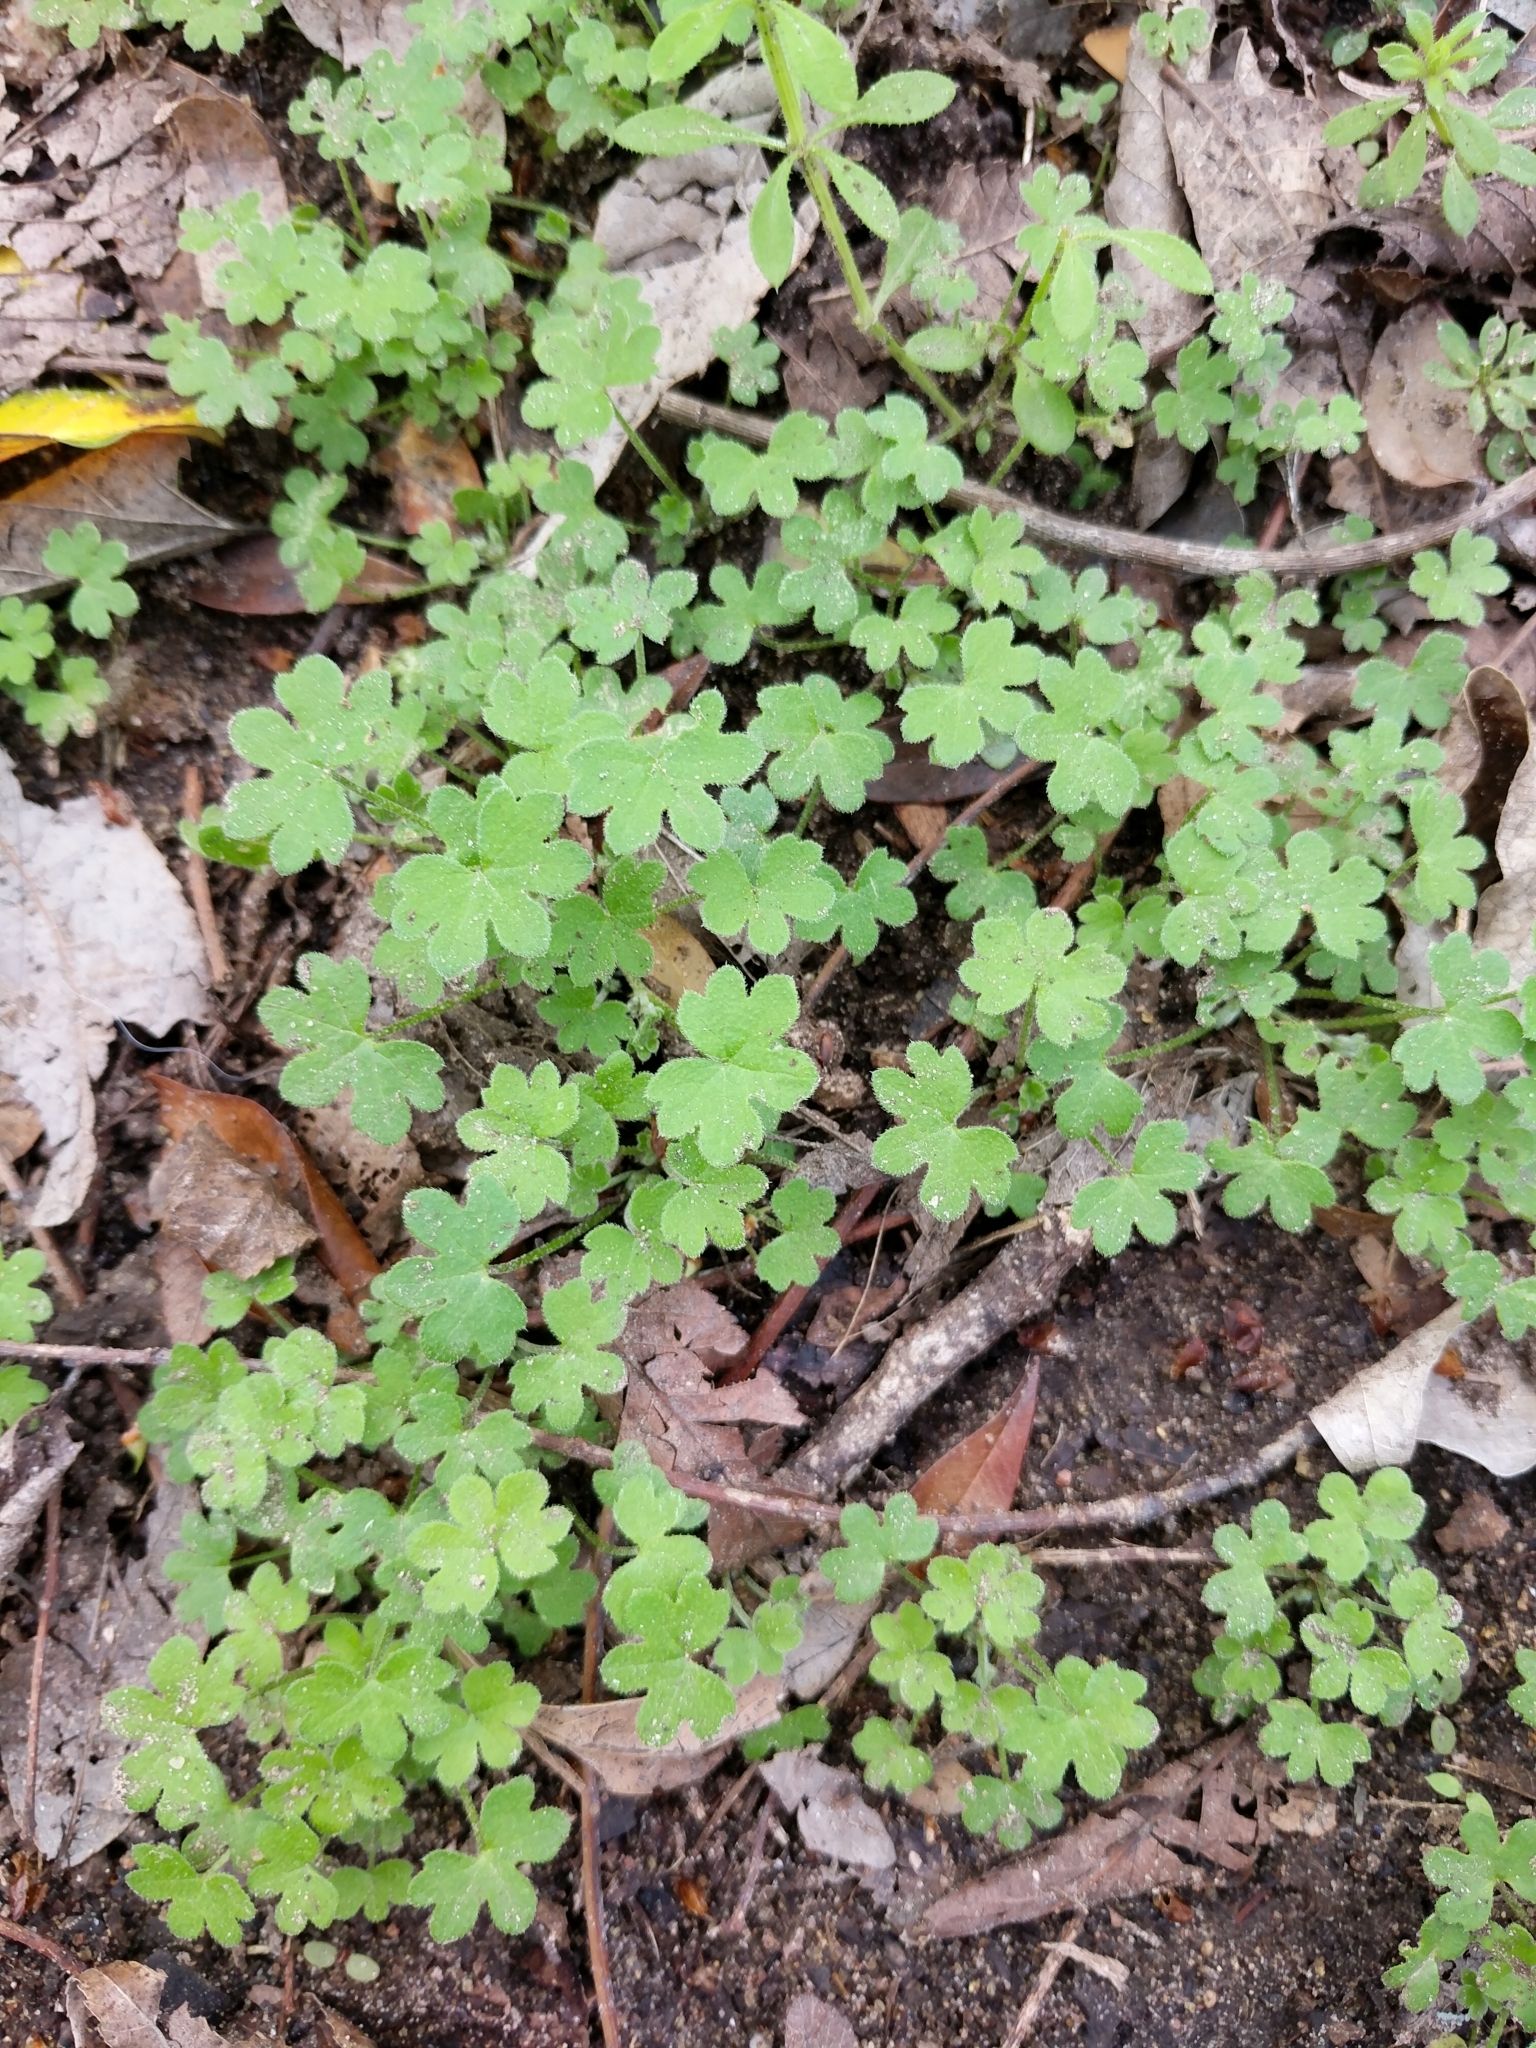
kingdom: Plantae
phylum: Tracheophyta
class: Magnoliopsida
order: Apiales
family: Apiaceae
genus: Bowlesia
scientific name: Bowlesia incana
